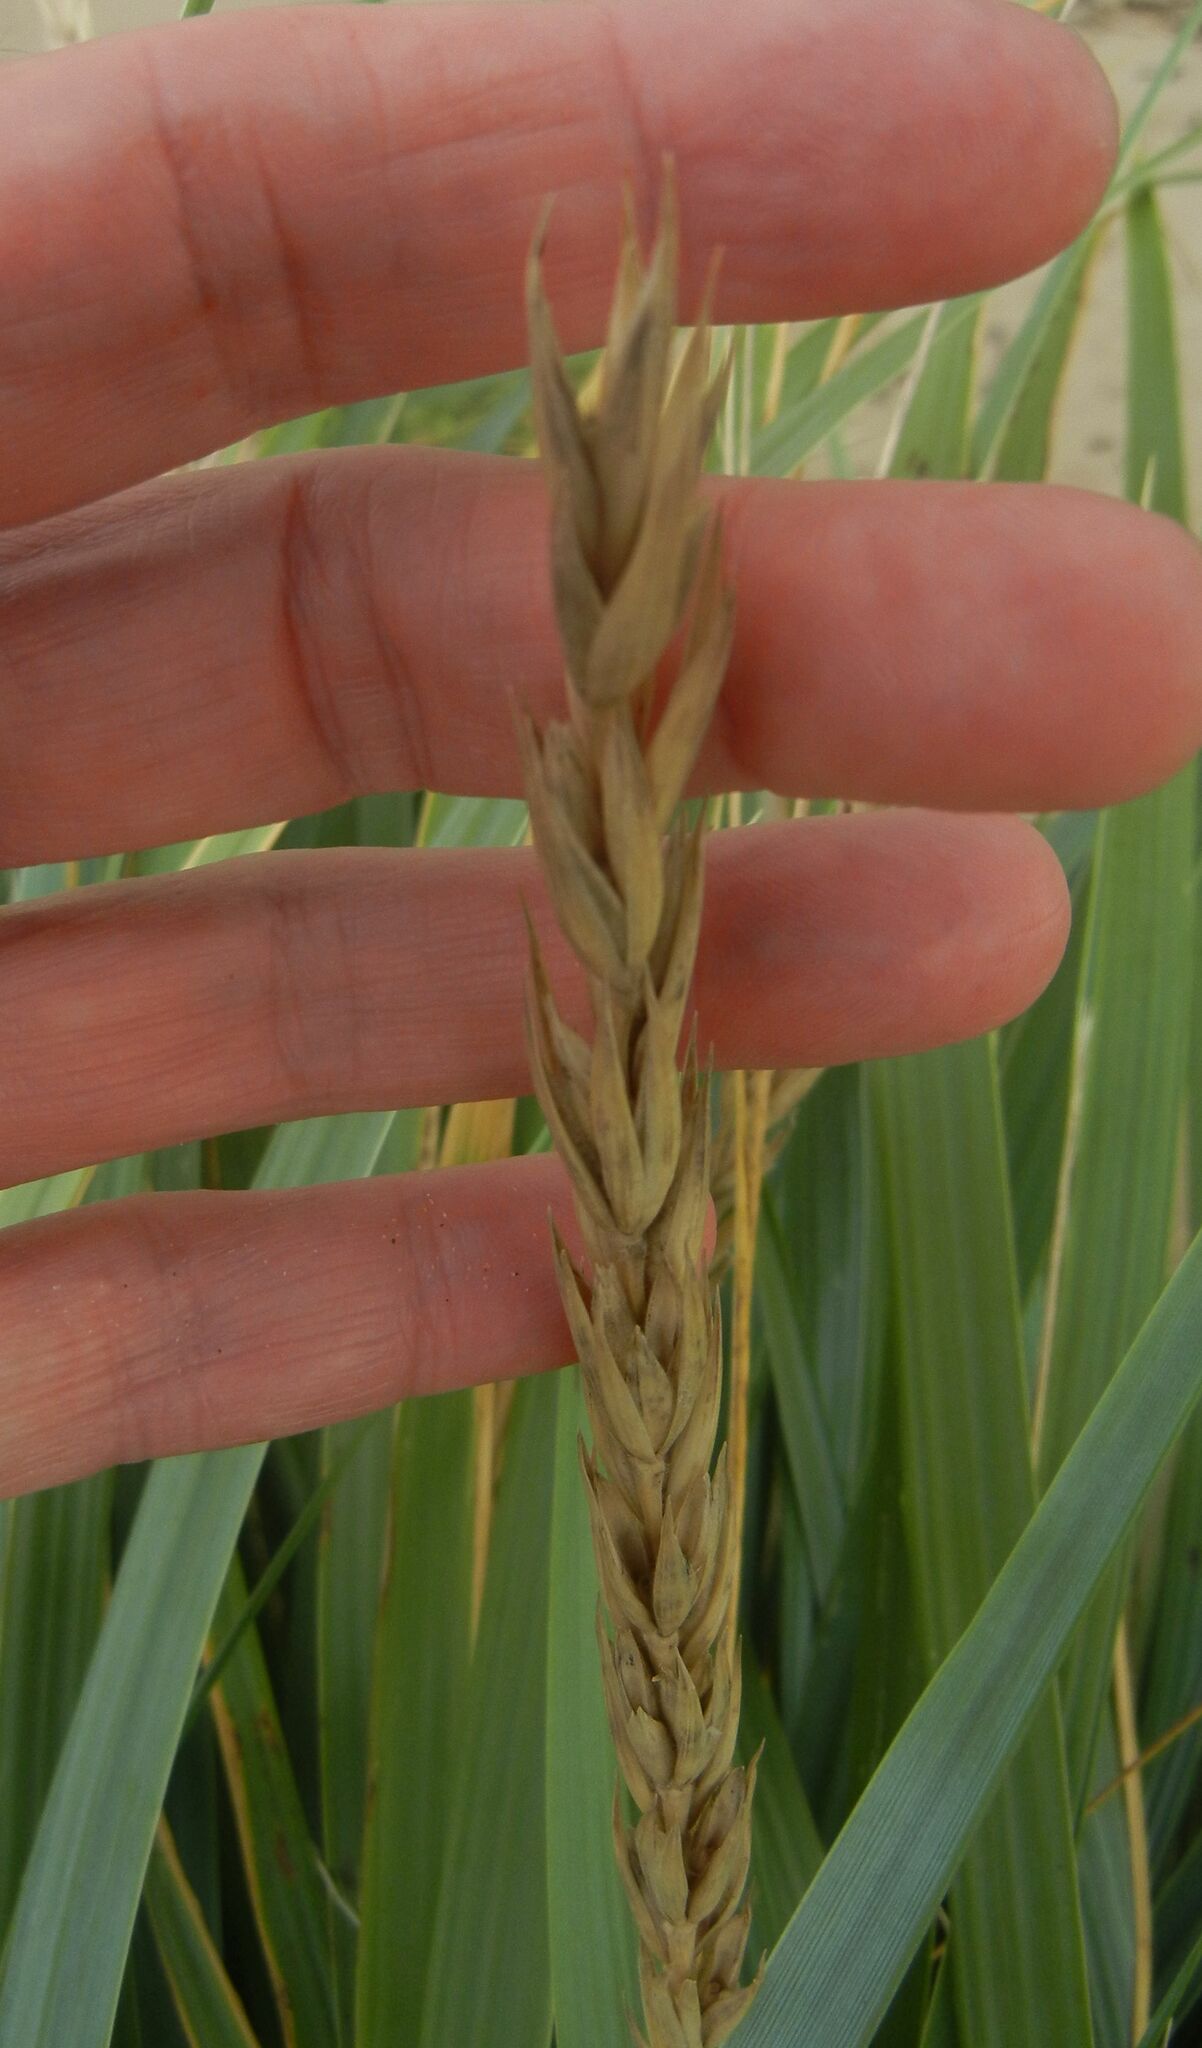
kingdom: Plantae
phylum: Tracheophyta
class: Liliopsida
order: Poales
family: Poaceae
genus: Leymus
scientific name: Leymus arenarius
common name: Lyme-grass
